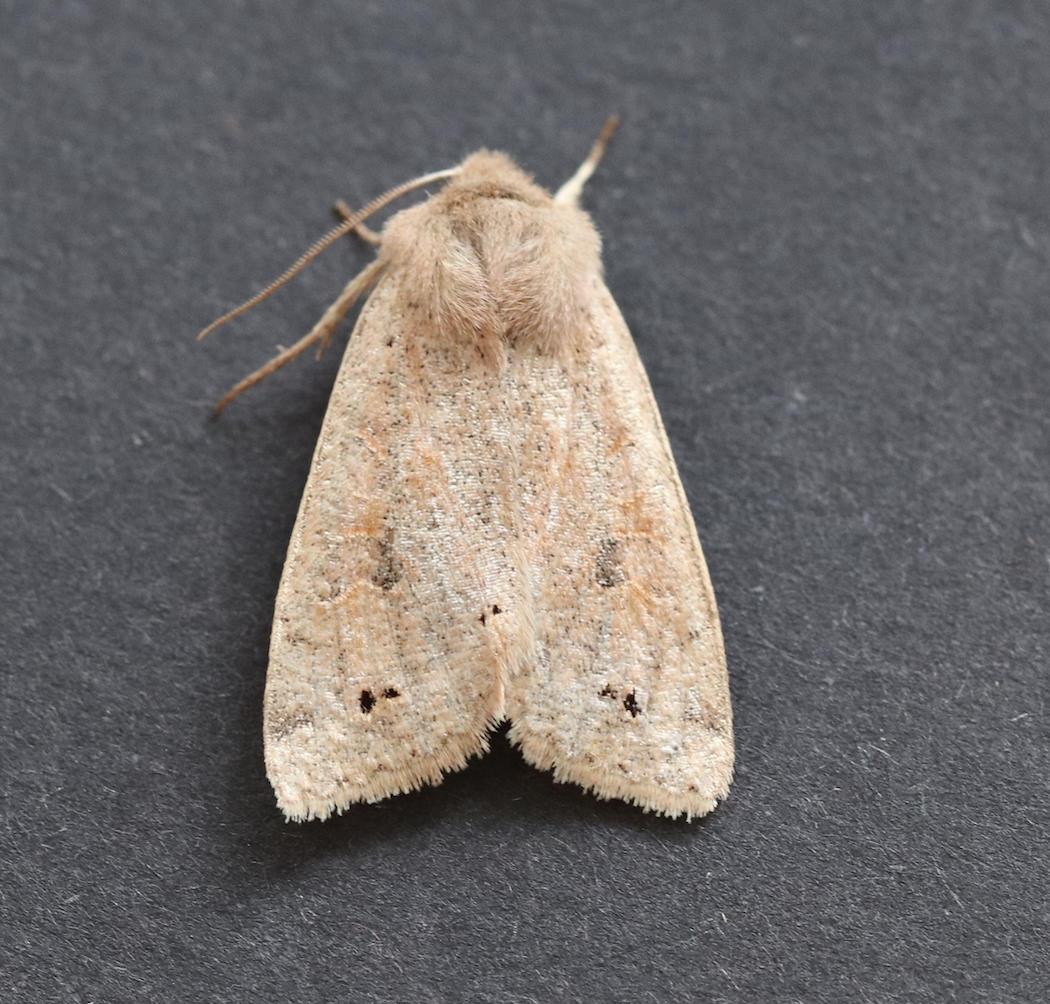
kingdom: Animalia
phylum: Arthropoda
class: Insecta
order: Lepidoptera
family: Noctuidae
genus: Anorthoa
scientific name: Anorthoa munda
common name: Twin-spotted quaker
